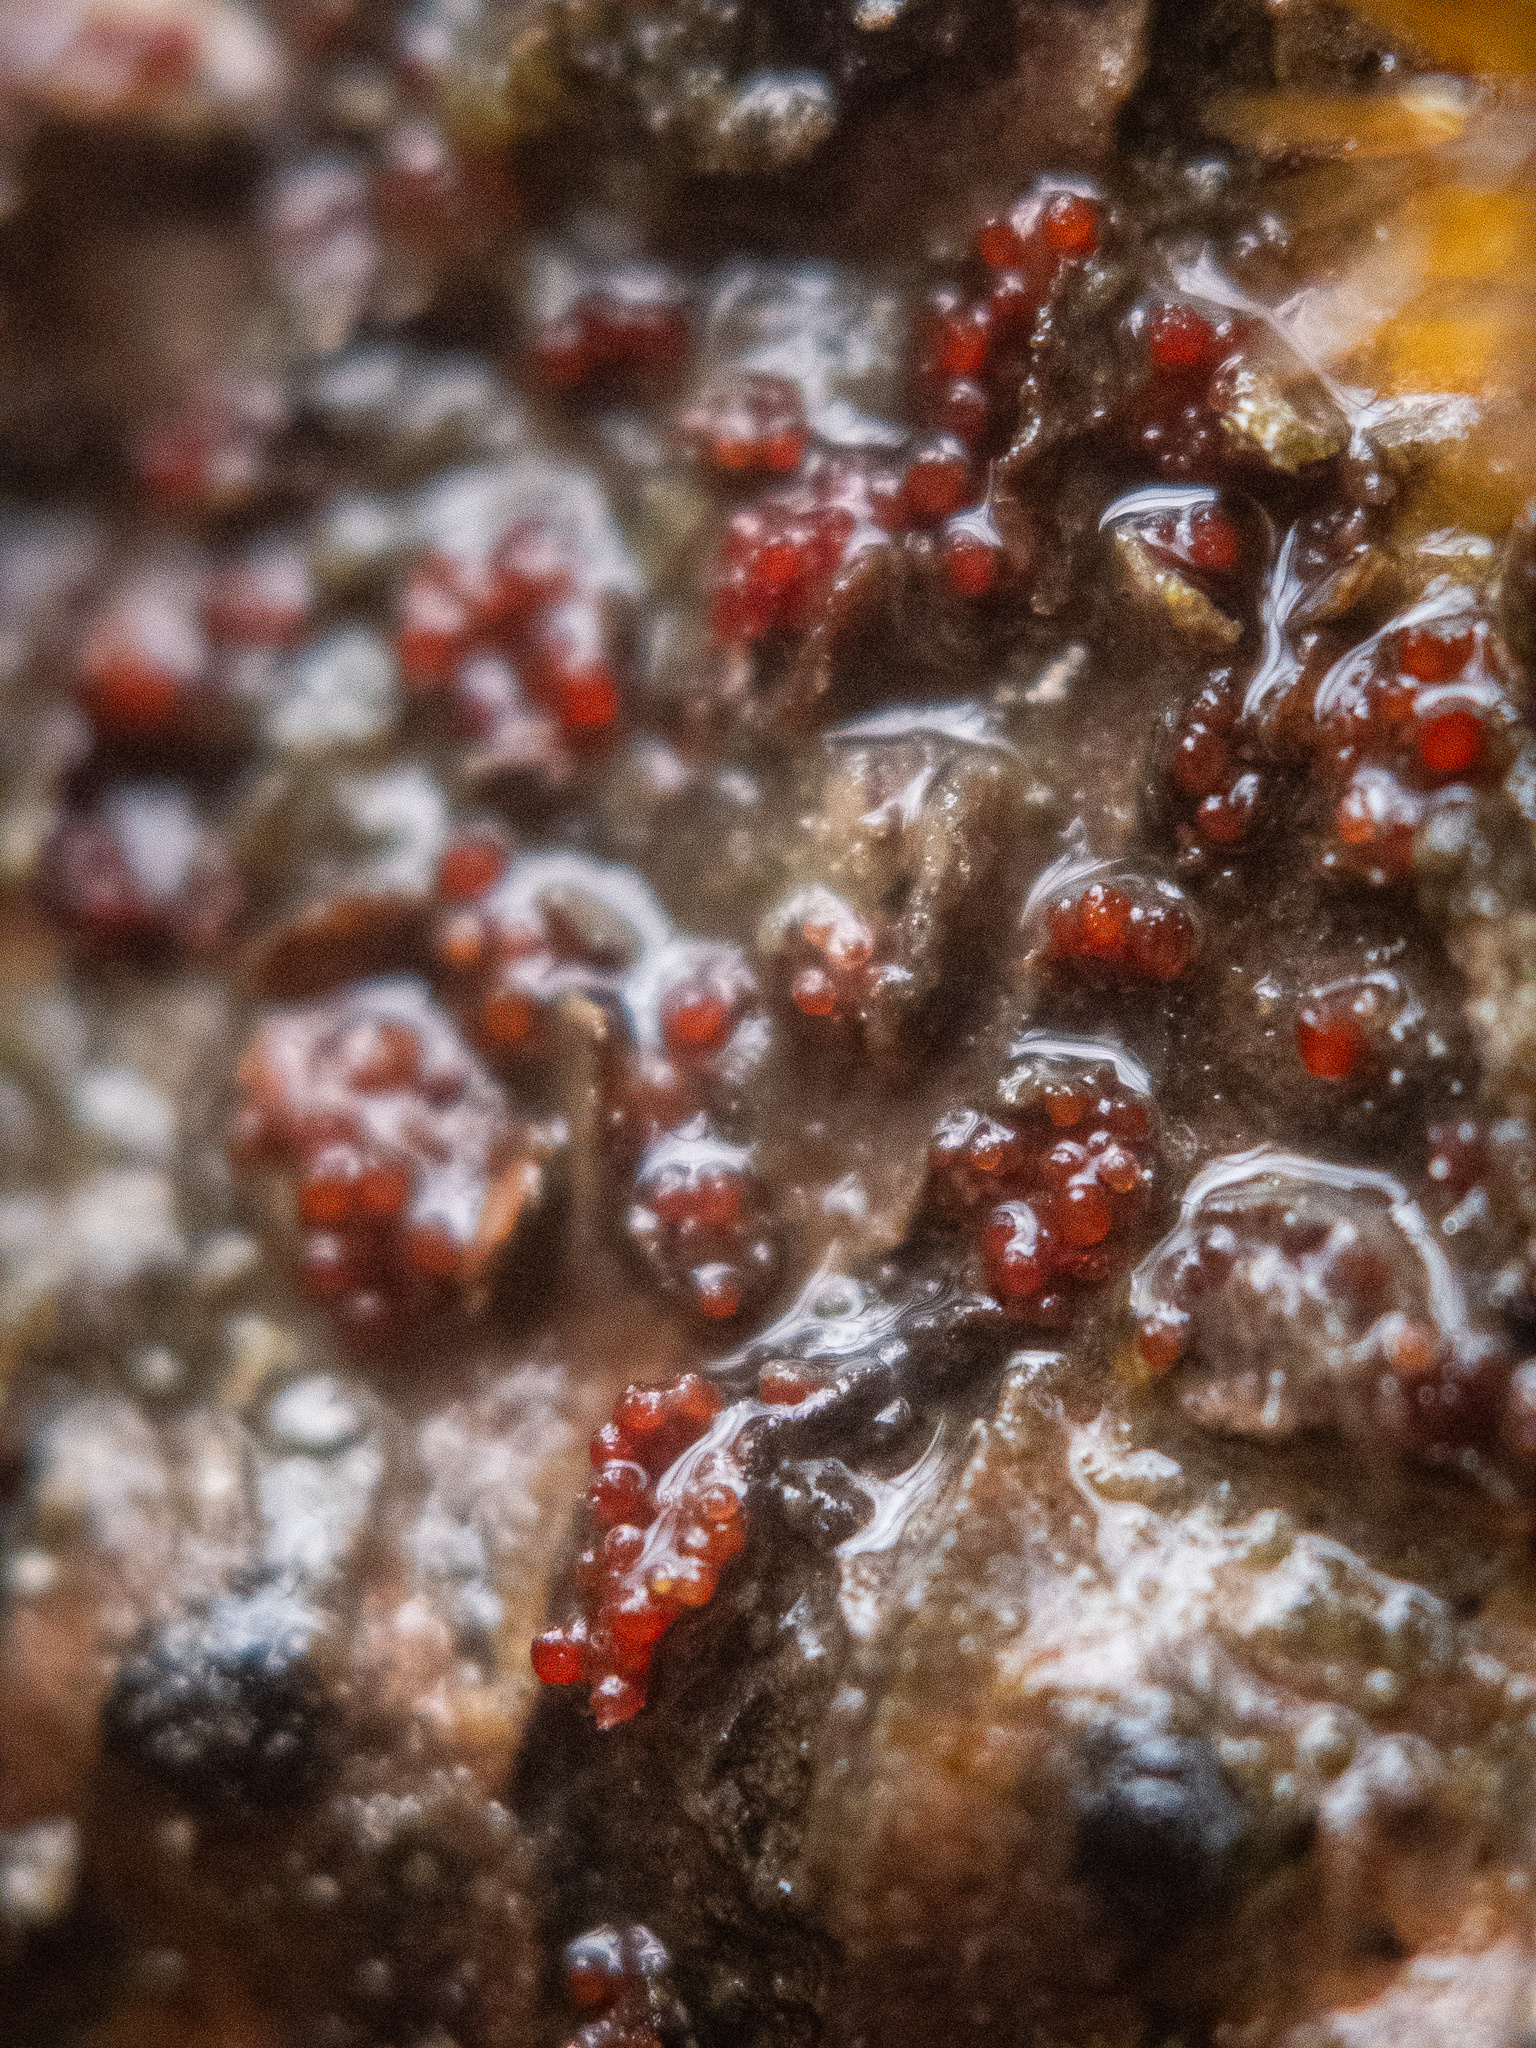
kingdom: Fungi
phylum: Ascomycota
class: Sordariomycetes
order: Hypocreales
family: Nectriaceae
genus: Neonectria
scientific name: Neonectria faginata
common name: Beech bark canker
